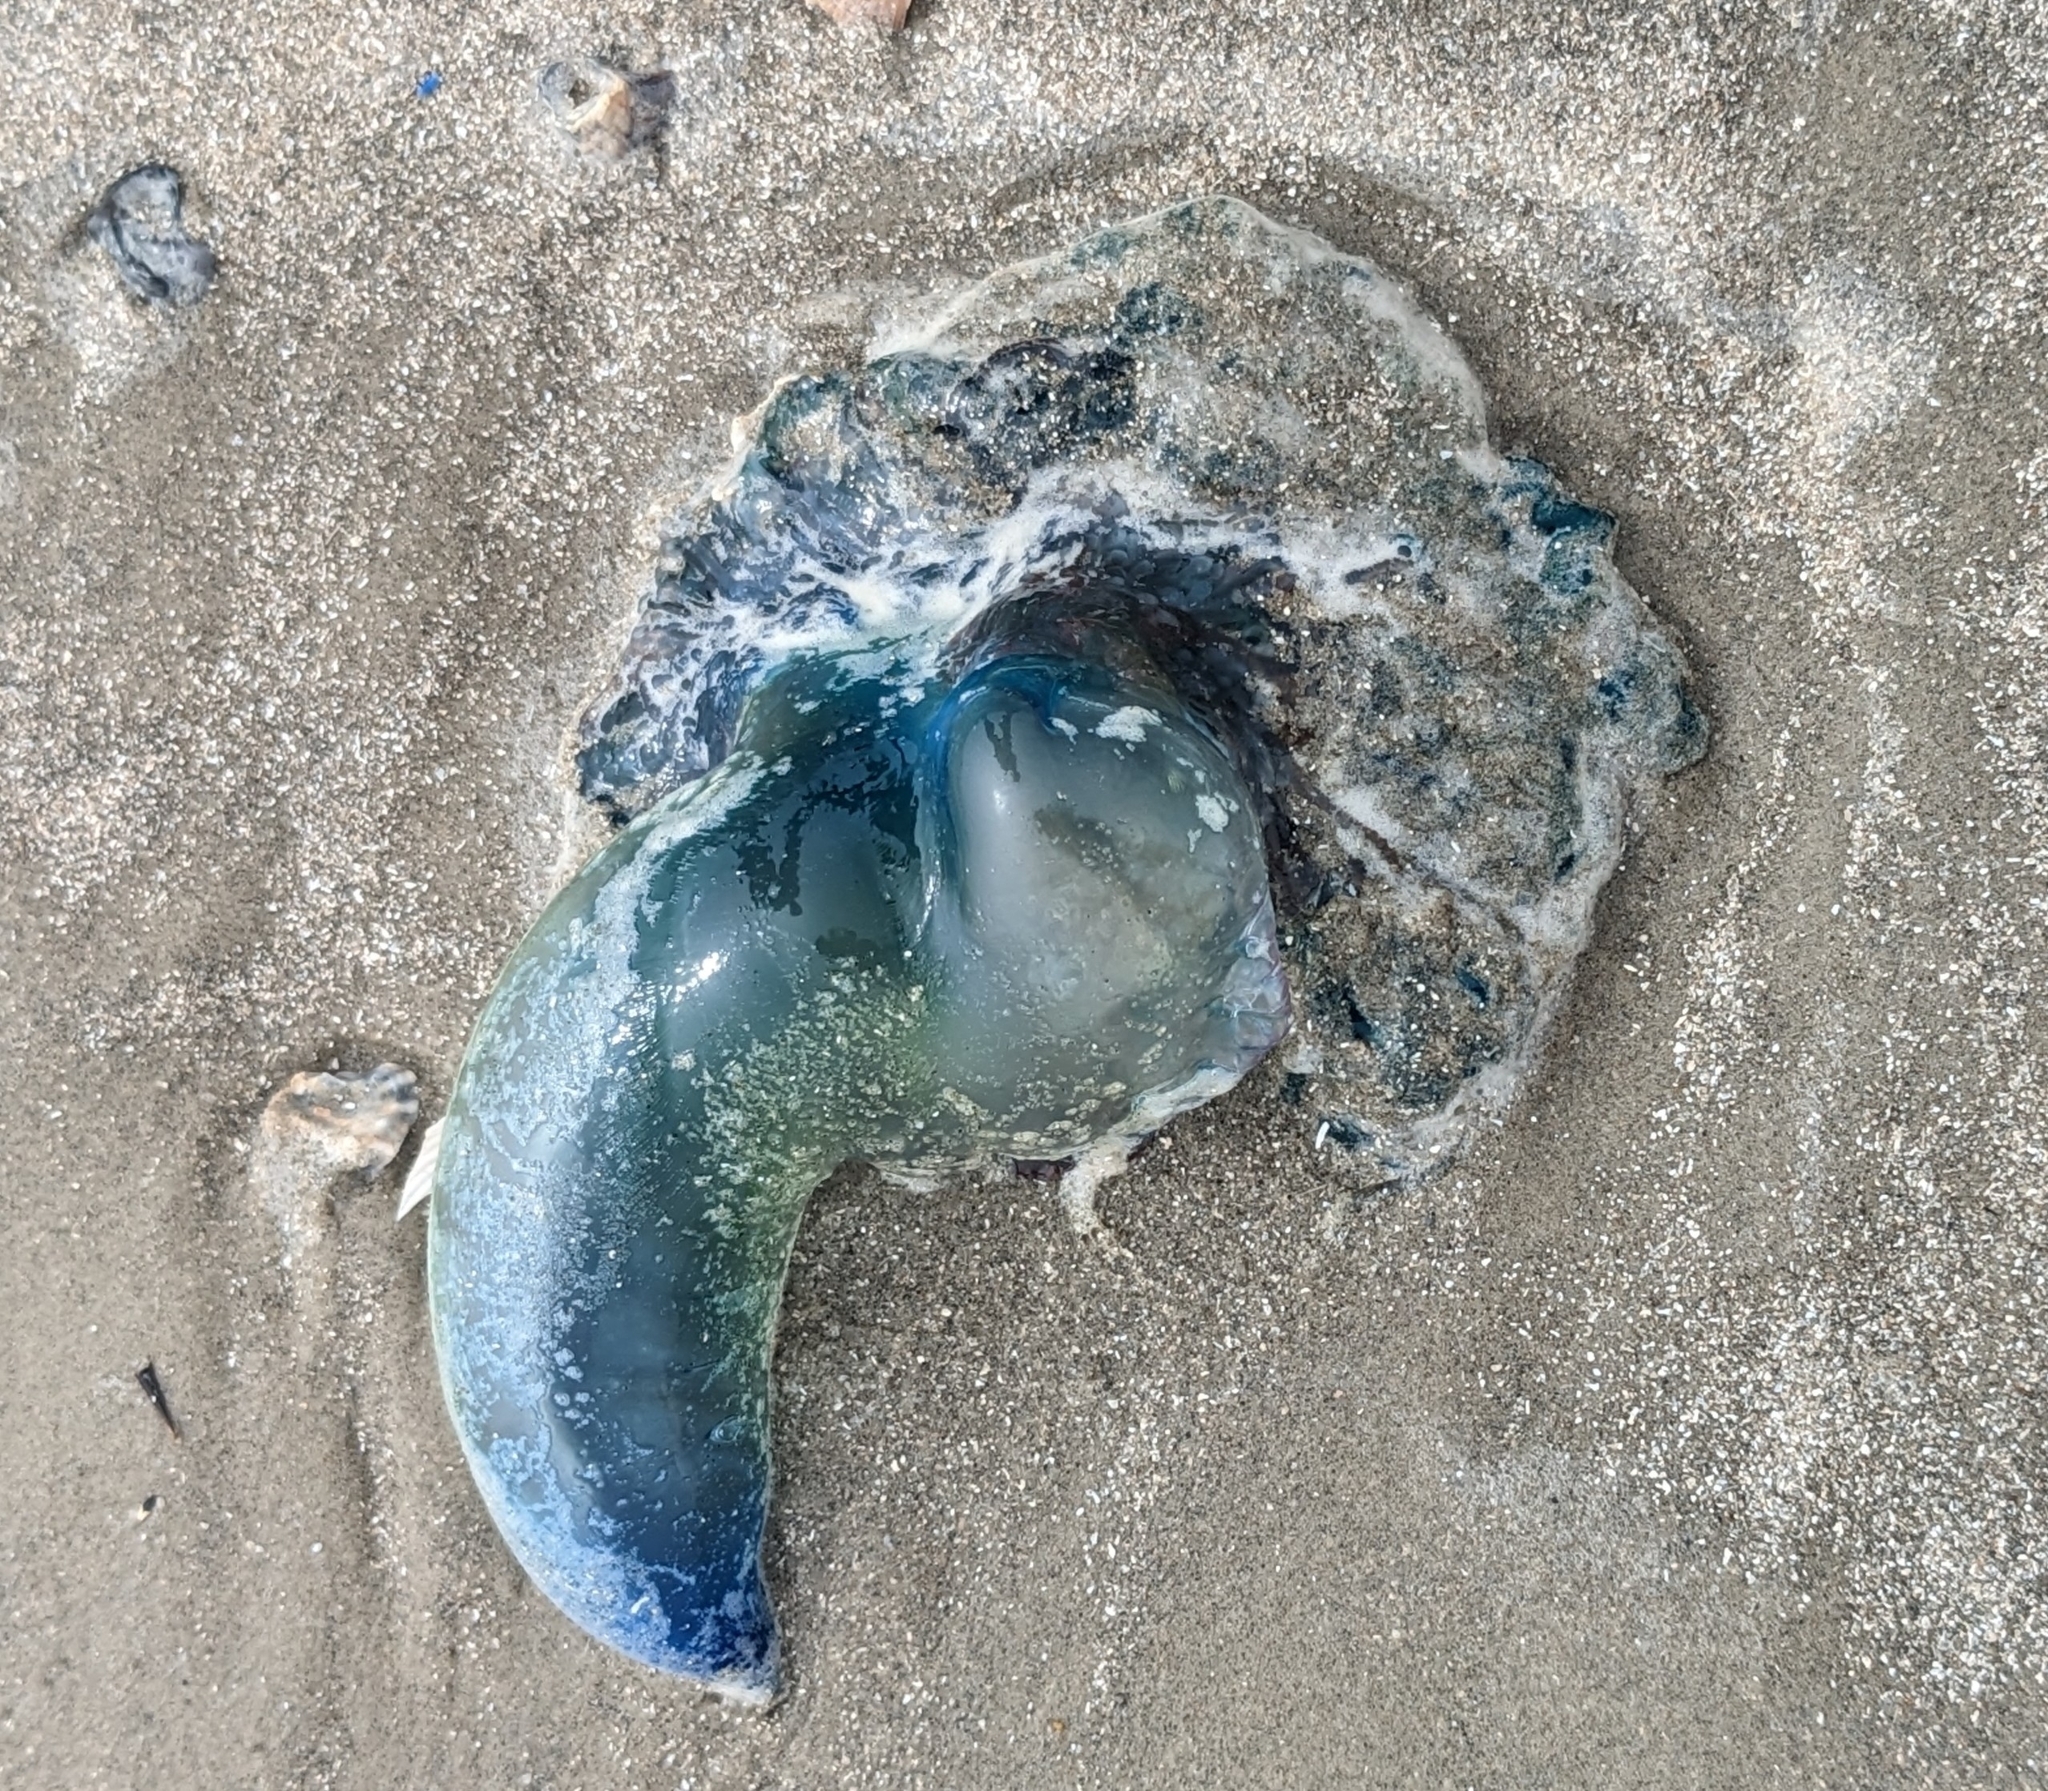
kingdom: Animalia
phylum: Cnidaria
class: Hydrozoa
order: Siphonophorae
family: Physaliidae
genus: Physalia
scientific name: Physalia physalis
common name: Portuguese man-of-war
